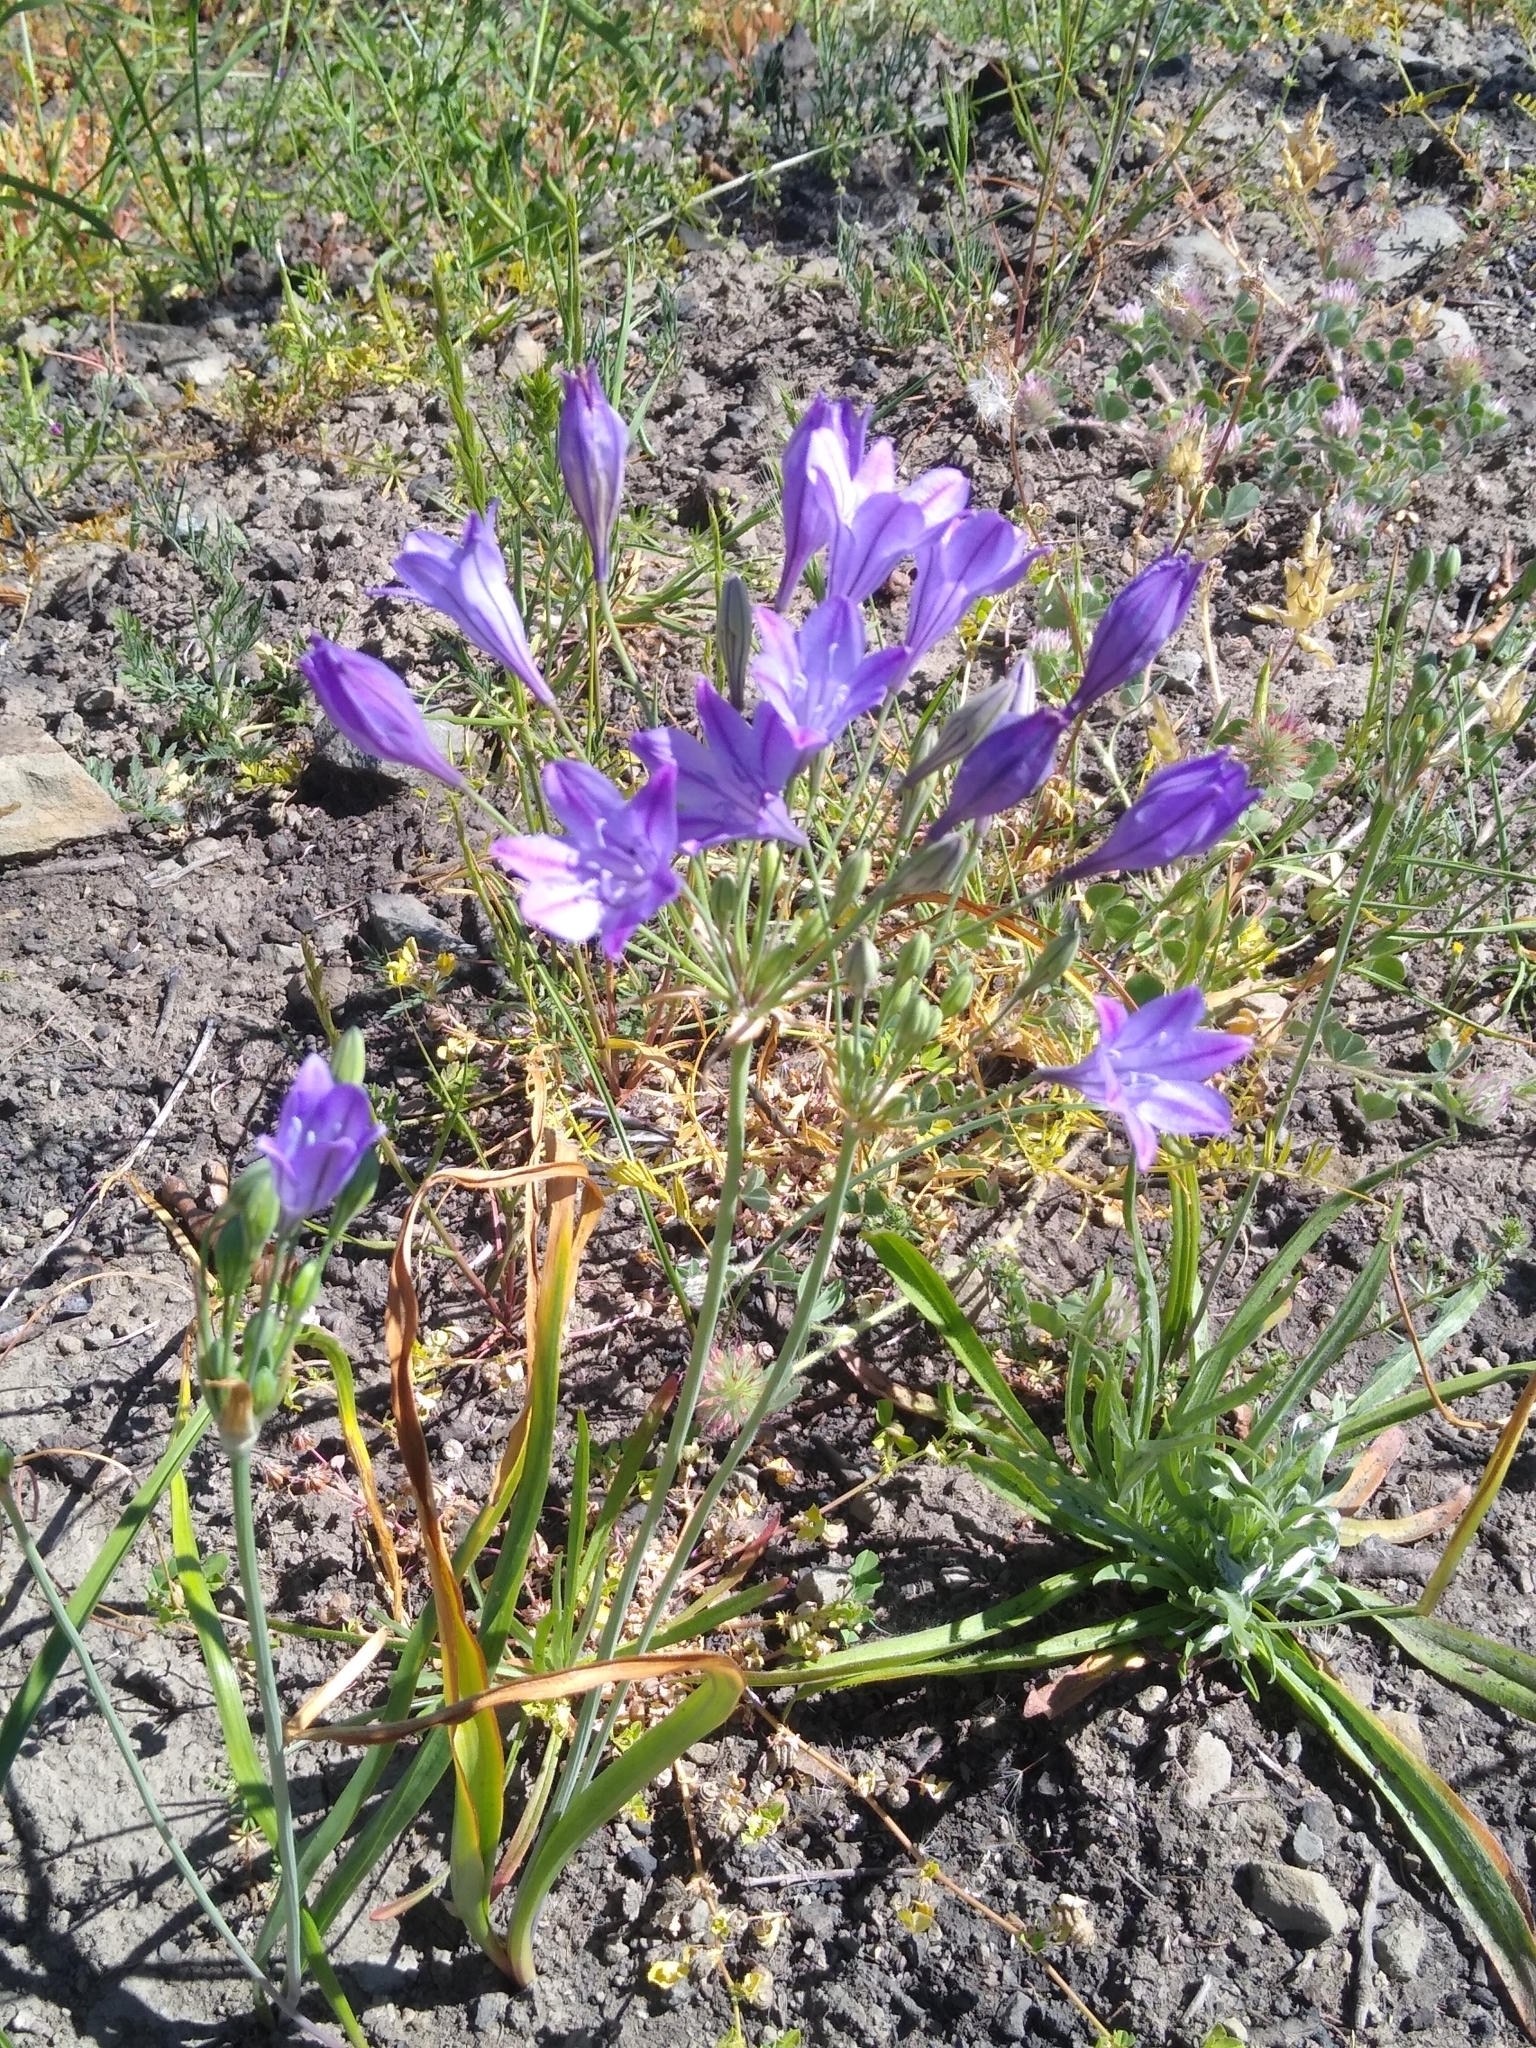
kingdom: Plantae
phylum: Tracheophyta
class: Liliopsida
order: Asparagales
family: Asparagaceae
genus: Triteleia
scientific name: Triteleia laxa
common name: Triplet-lily
